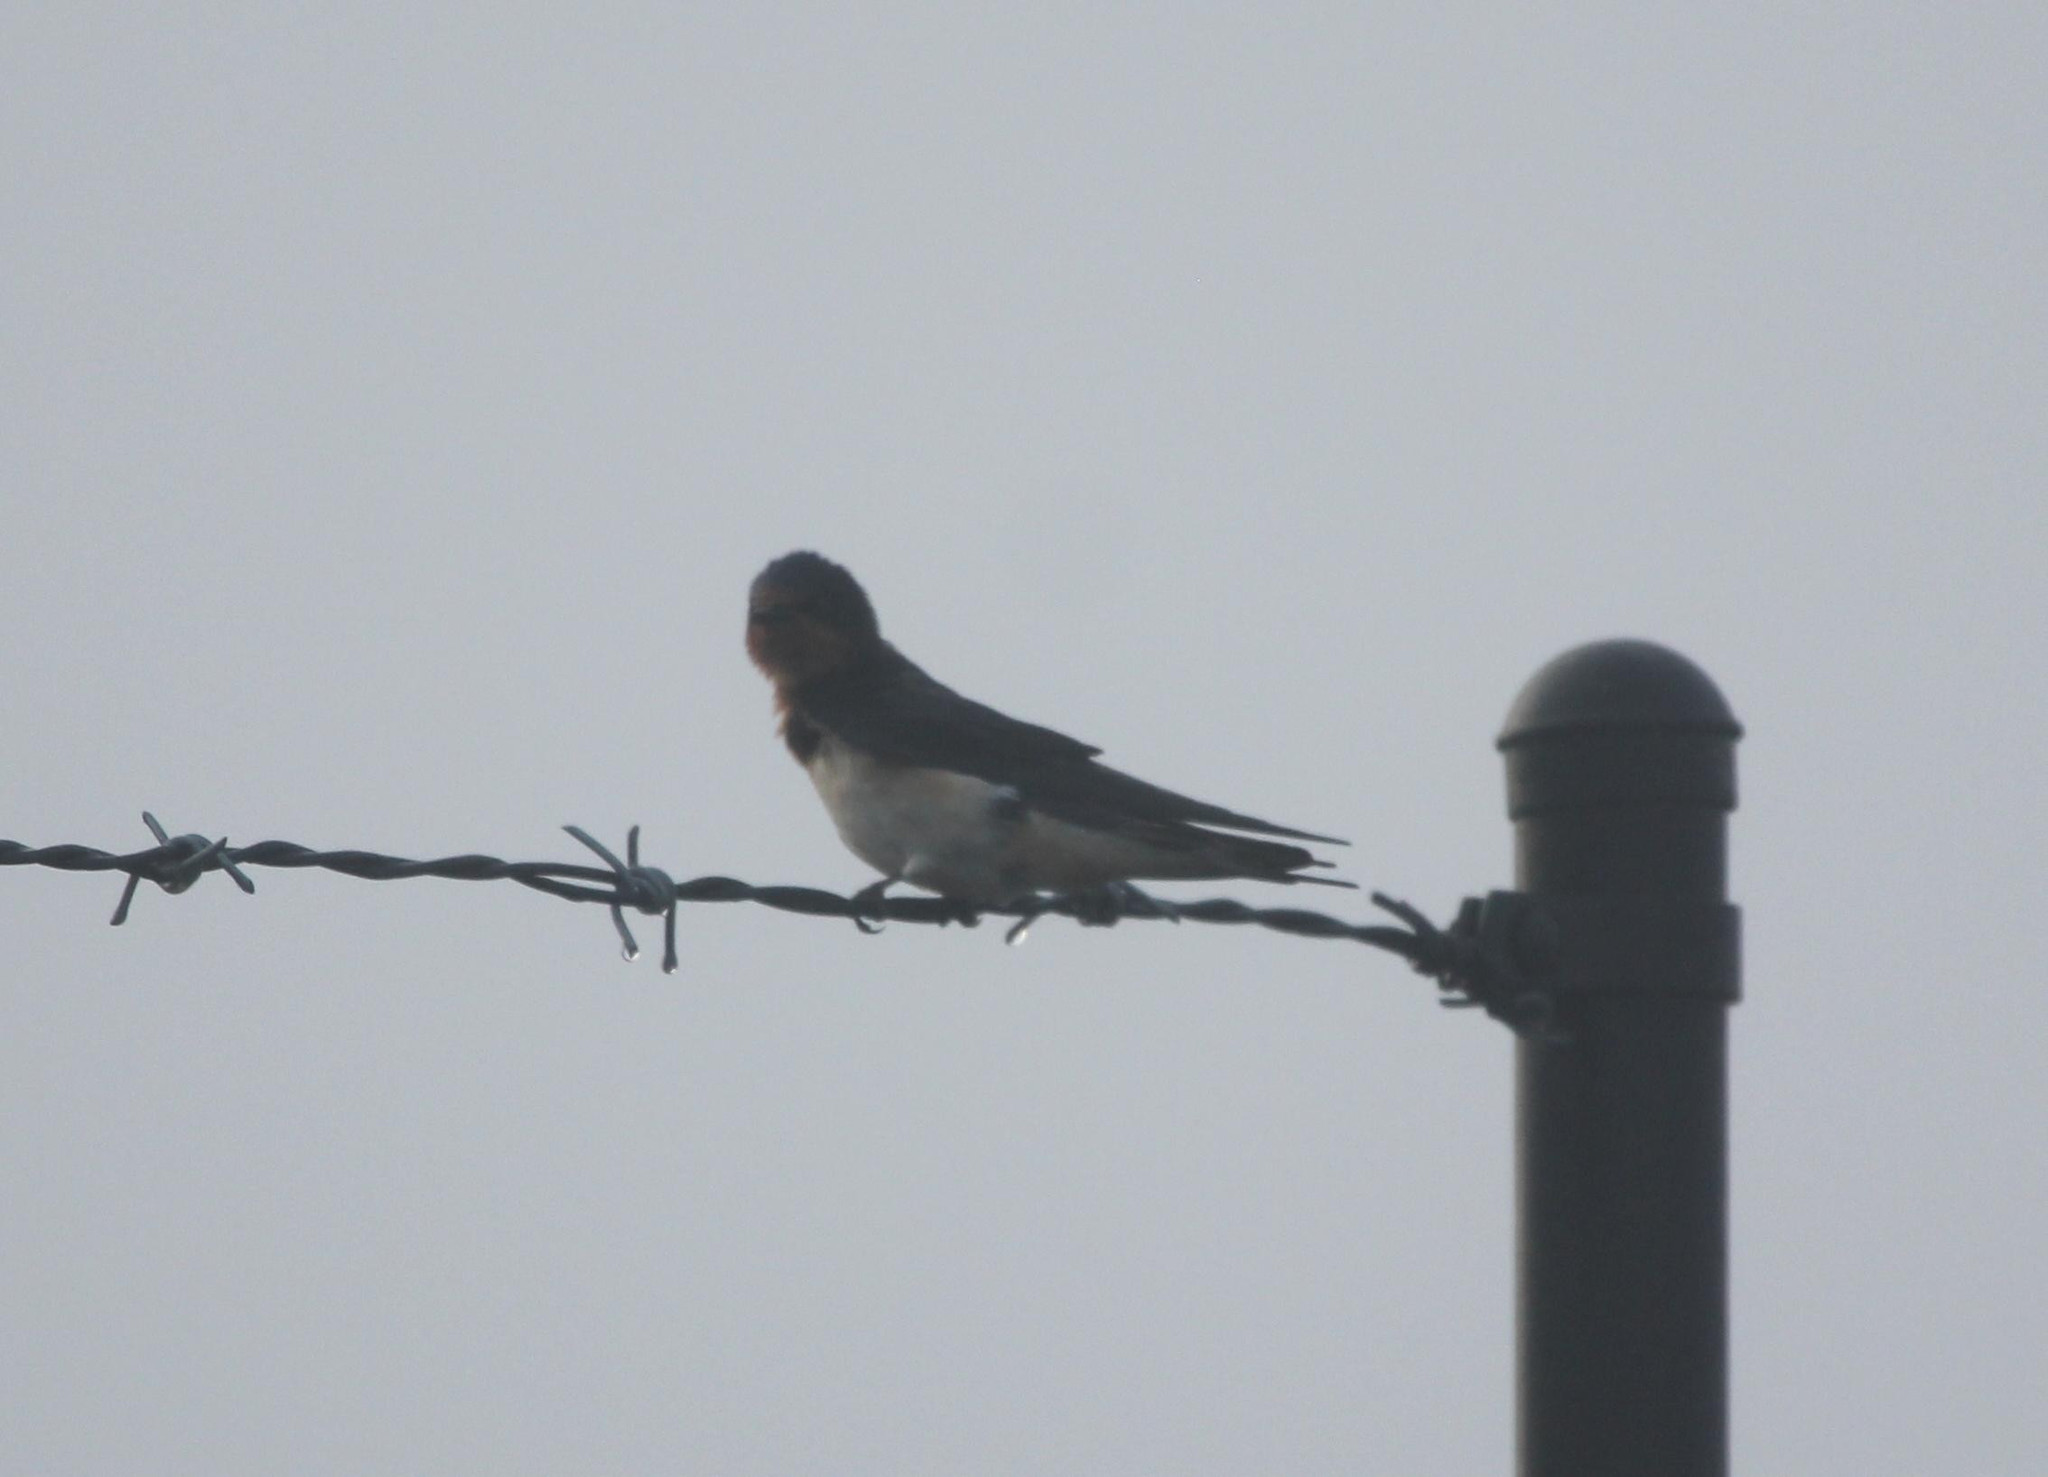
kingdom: Animalia
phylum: Chordata
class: Aves
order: Passeriformes
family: Hirundinidae
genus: Hirundo
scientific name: Hirundo rustica
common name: Barn swallow
